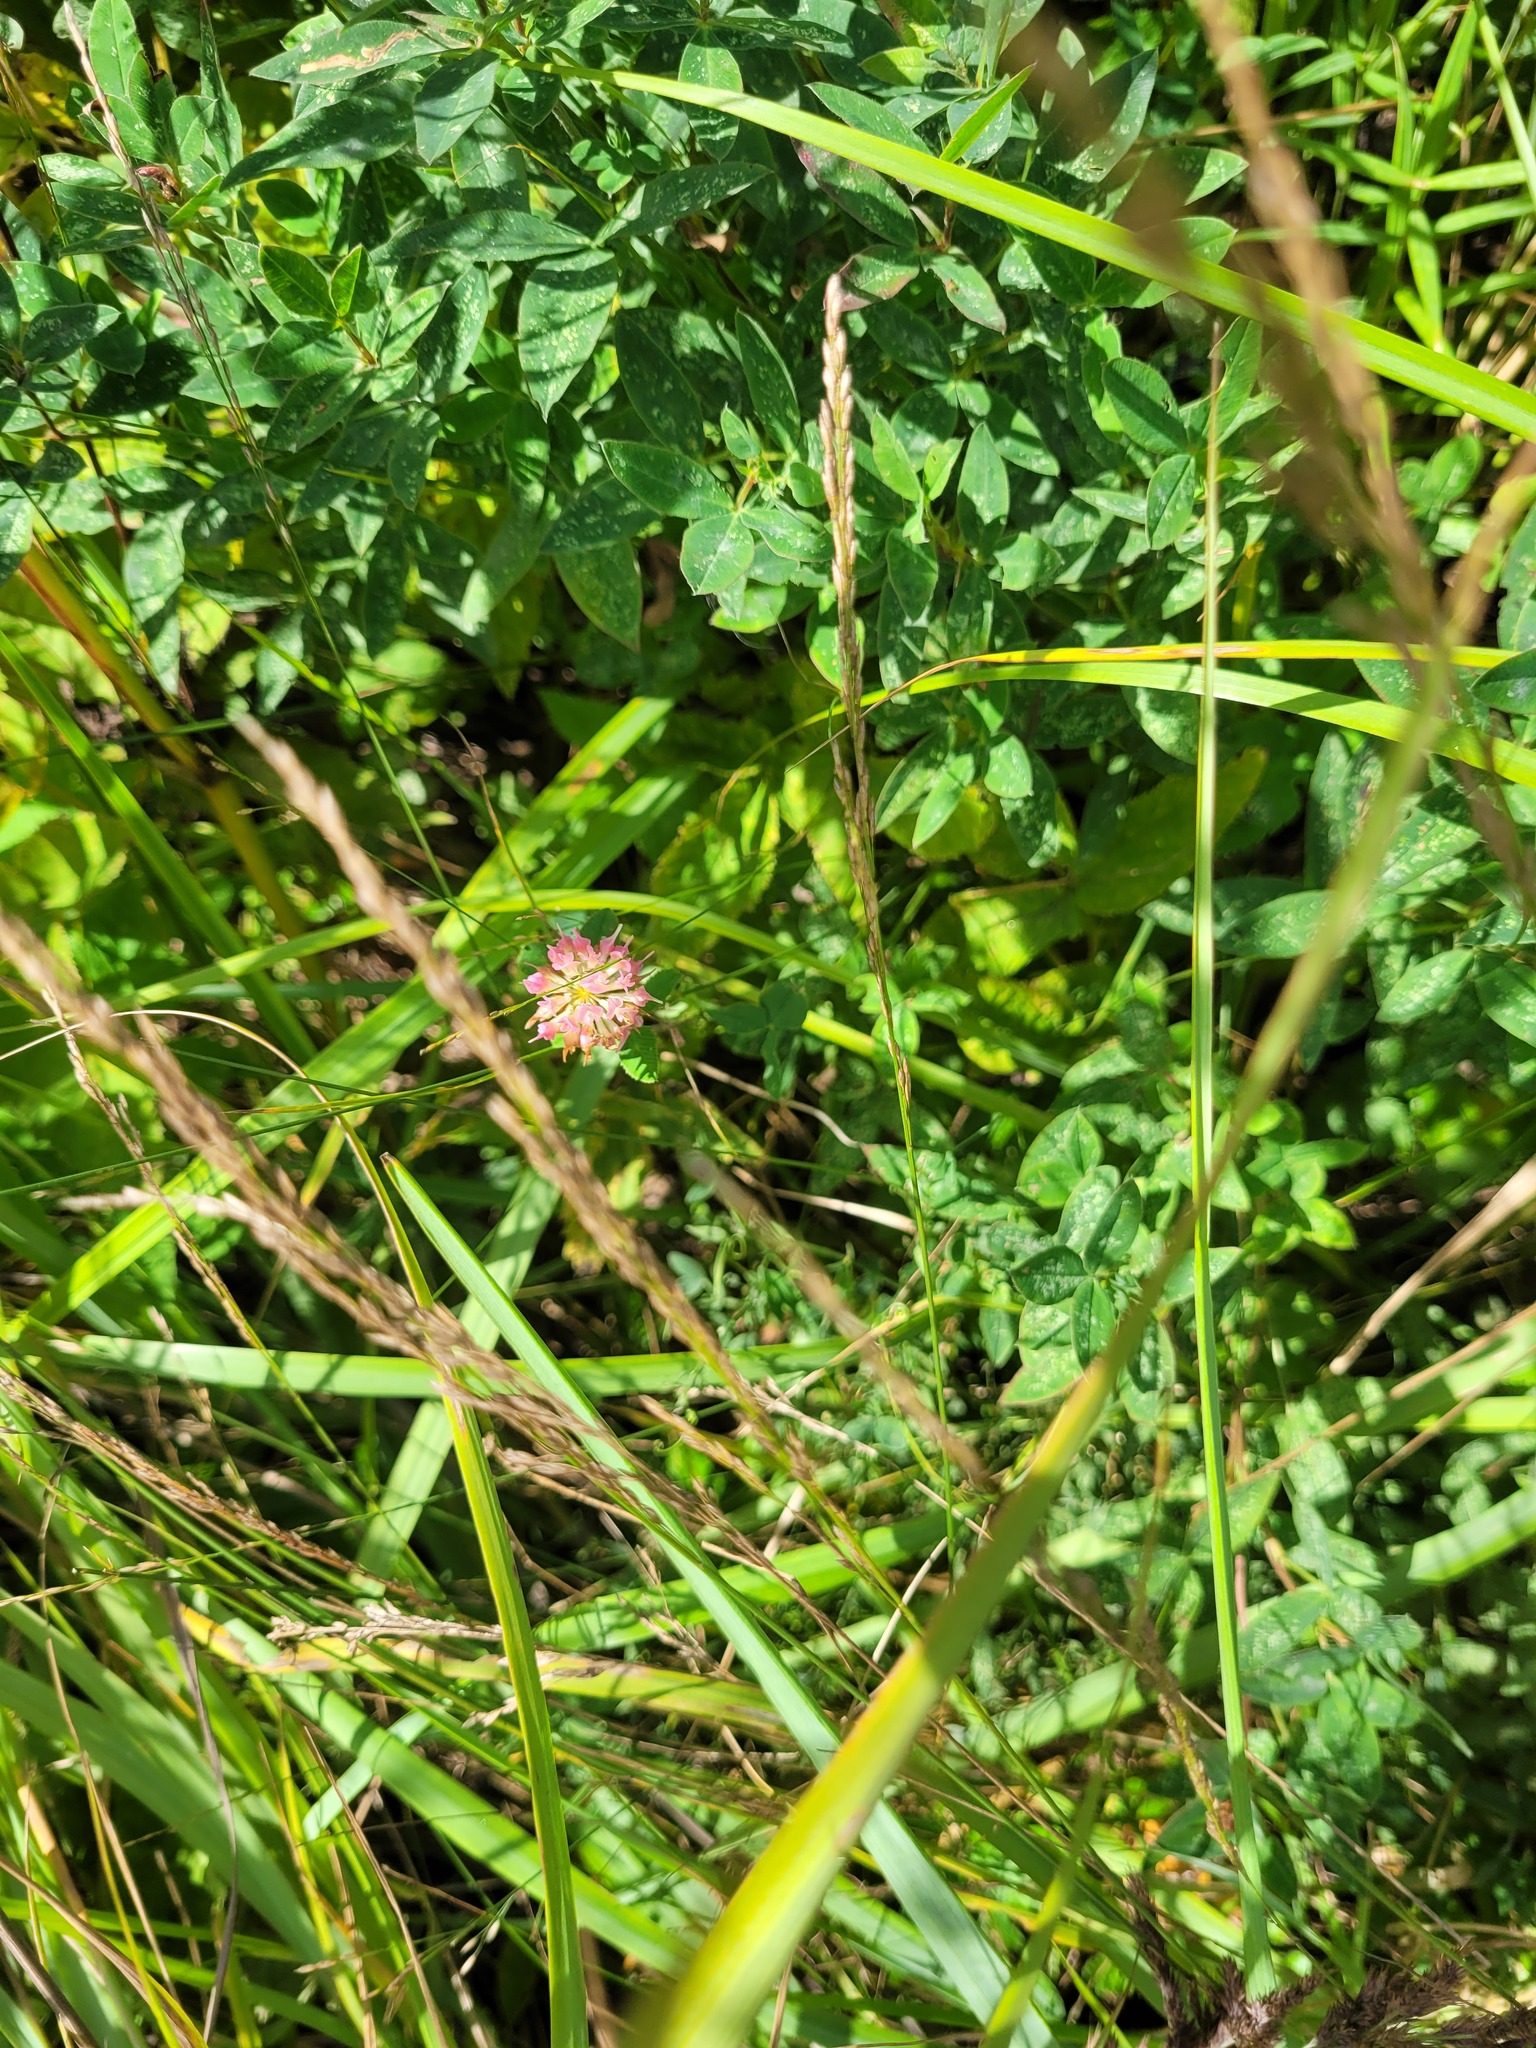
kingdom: Plantae
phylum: Tracheophyta
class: Magnoliopsida
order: Fabales
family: Fabaceae
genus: Trifolium
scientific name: Trifolium hybridum
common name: Alsike clover
